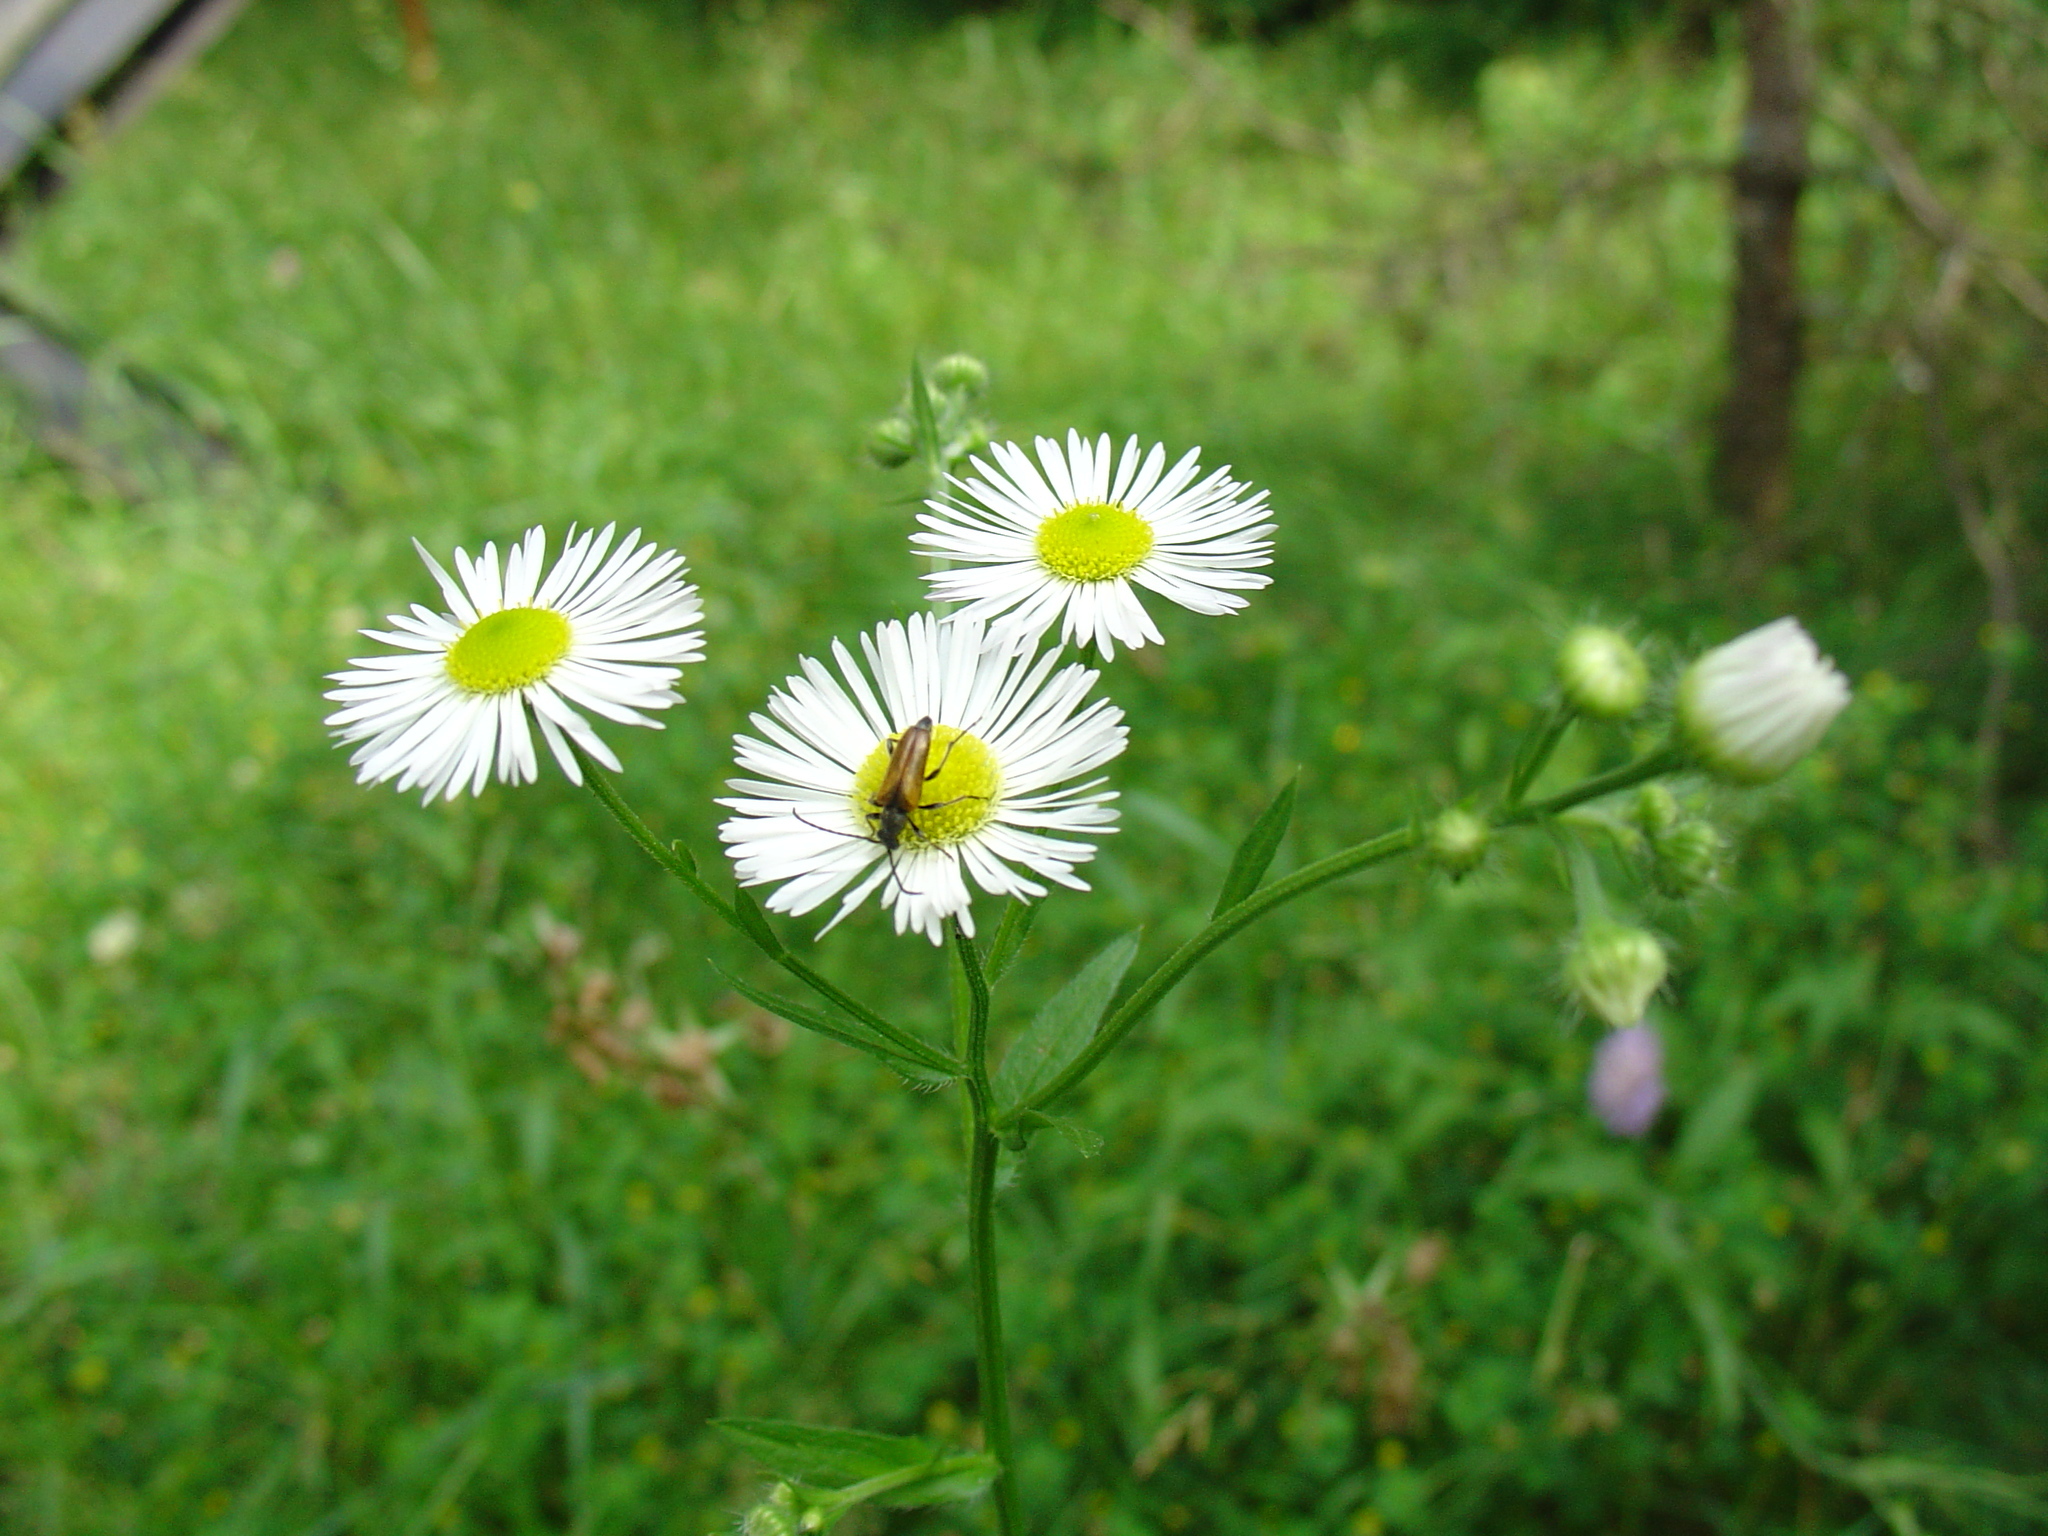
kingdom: Plantae
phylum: Tracheophyta
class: Magnoliopsida
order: Asterales
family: Asteraceae
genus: Erigeron
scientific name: Erigeron strigosus
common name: Common eastern fleabane
